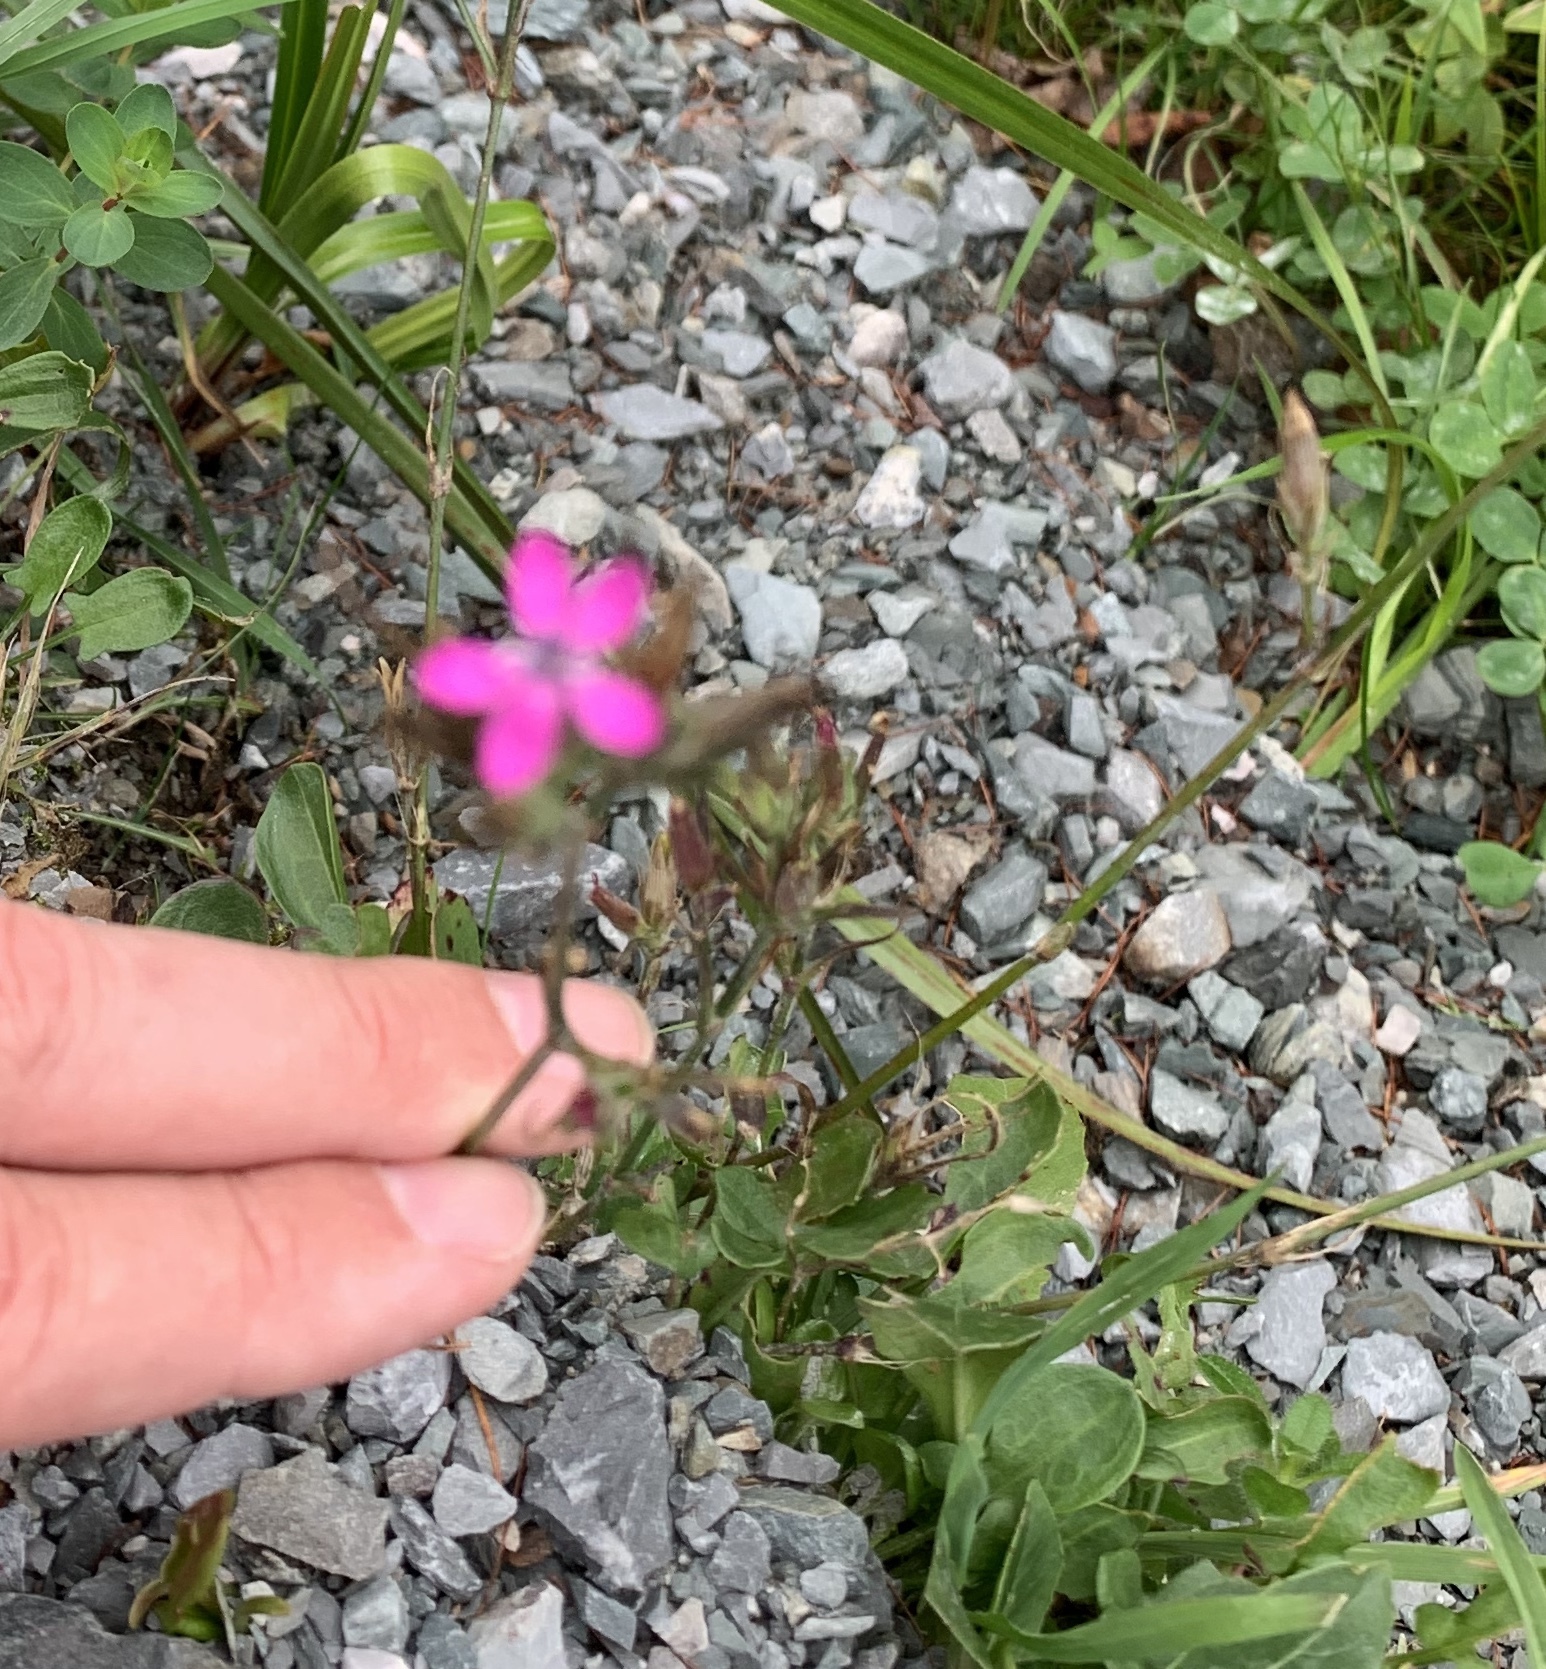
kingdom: Plantae
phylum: Tracheophyta
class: Magnoliopsida
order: Caryophyllales
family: Caryophyllaceae
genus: Dianthus
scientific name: Dianthus armeria
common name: Deptford pink
